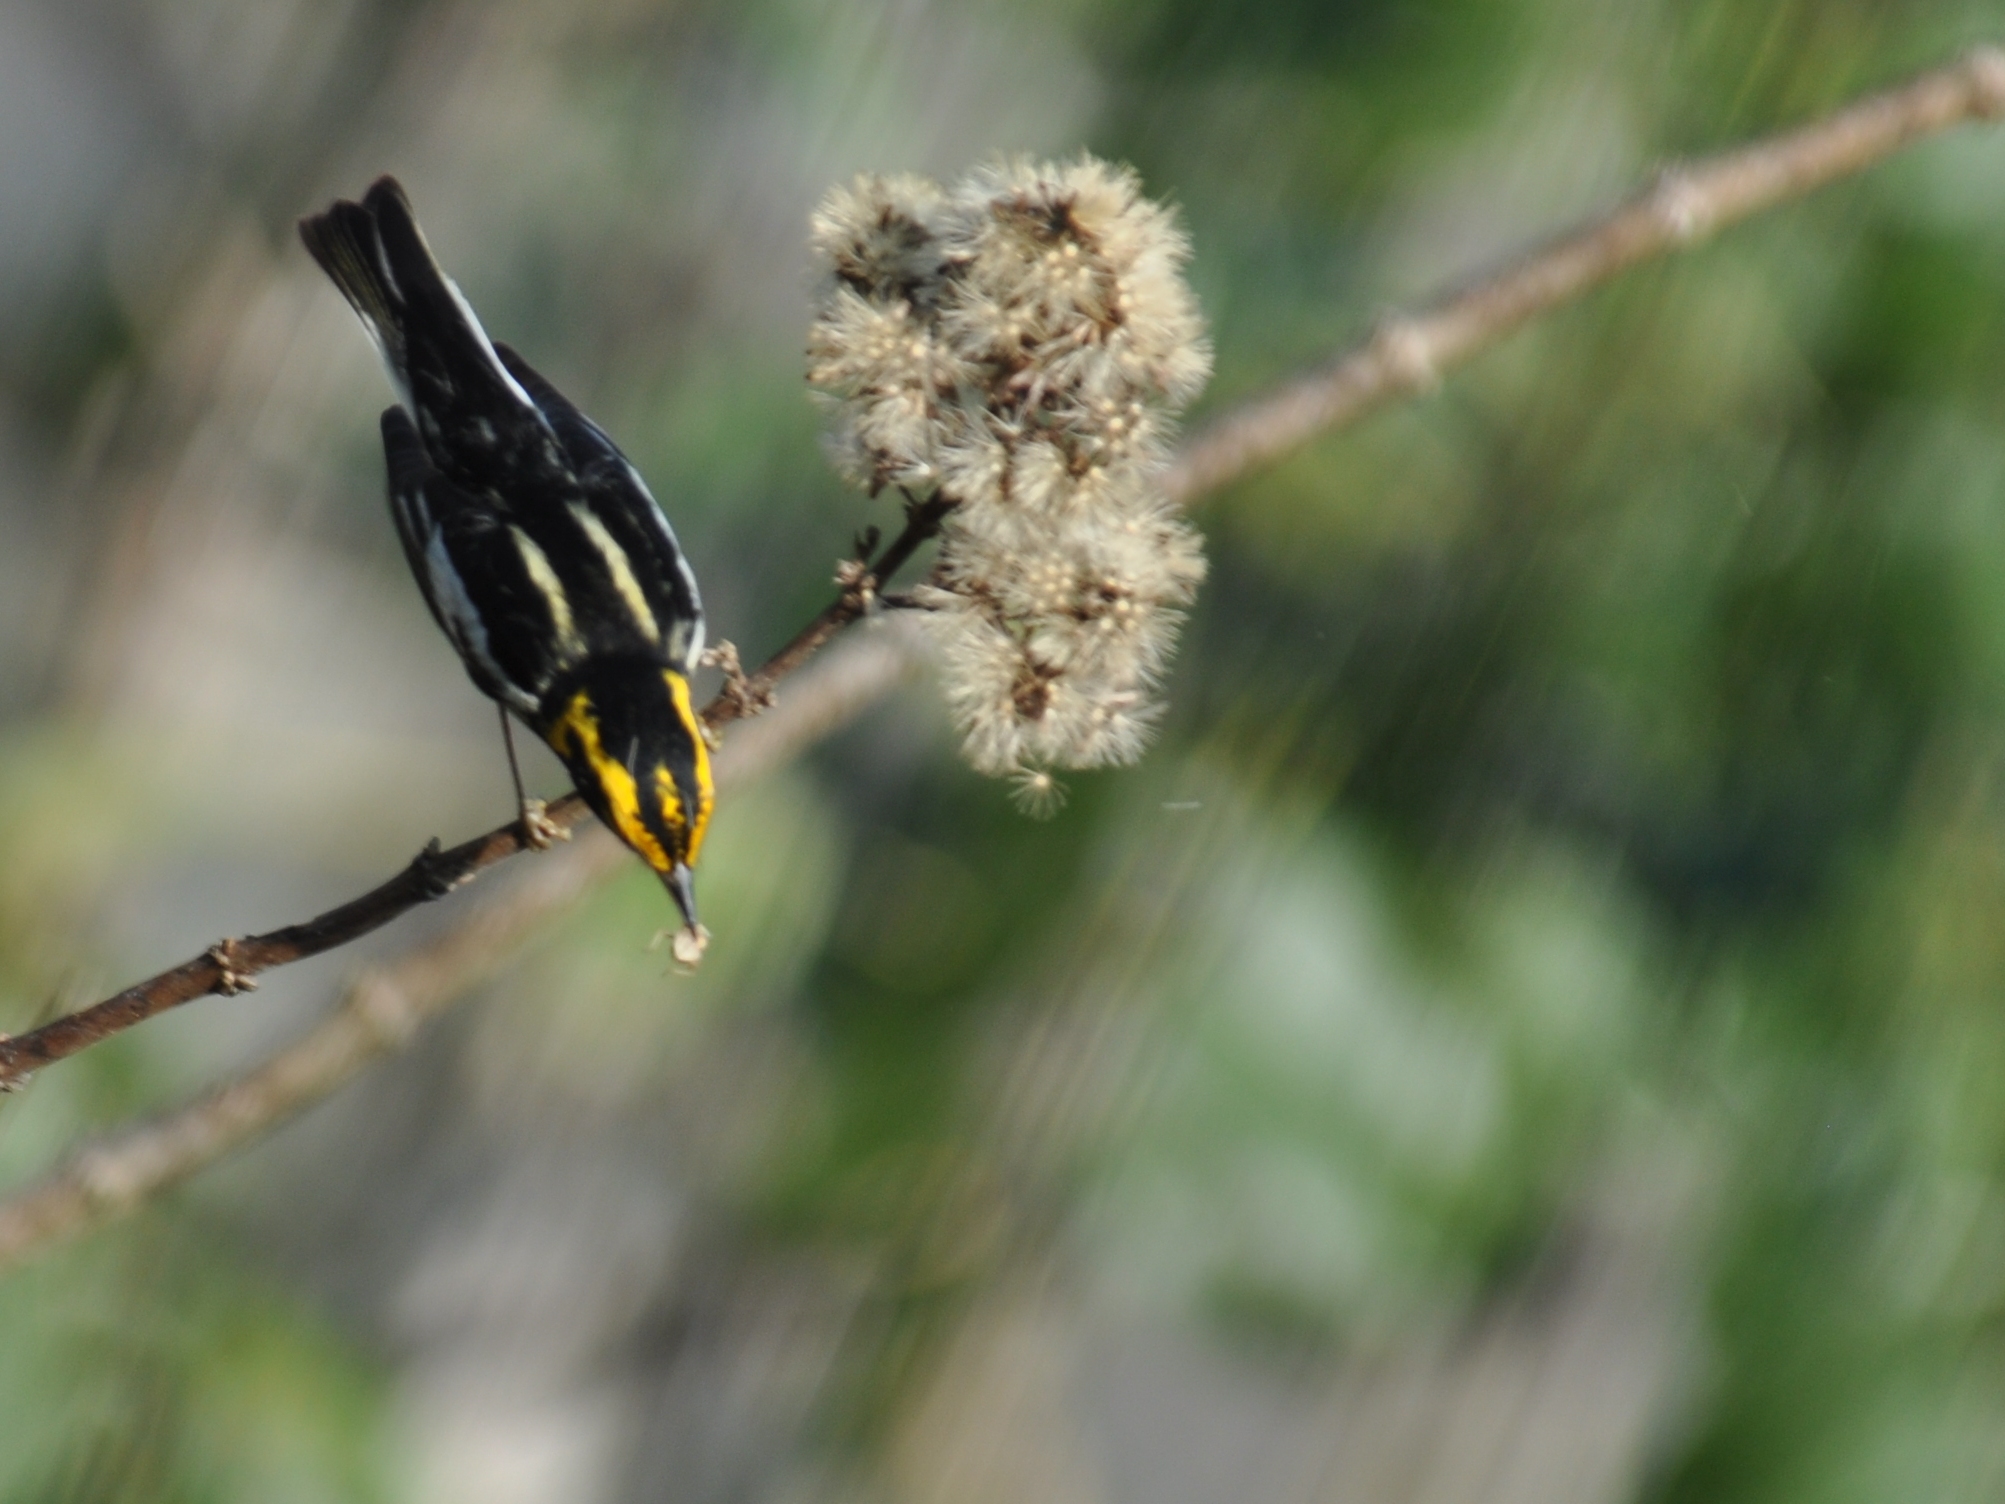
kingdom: Animalia
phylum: Chordata
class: Aves
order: Passeriformes
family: Parulidae
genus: Setophaga
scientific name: Setophaga fusca
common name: Blackburnian warbler
